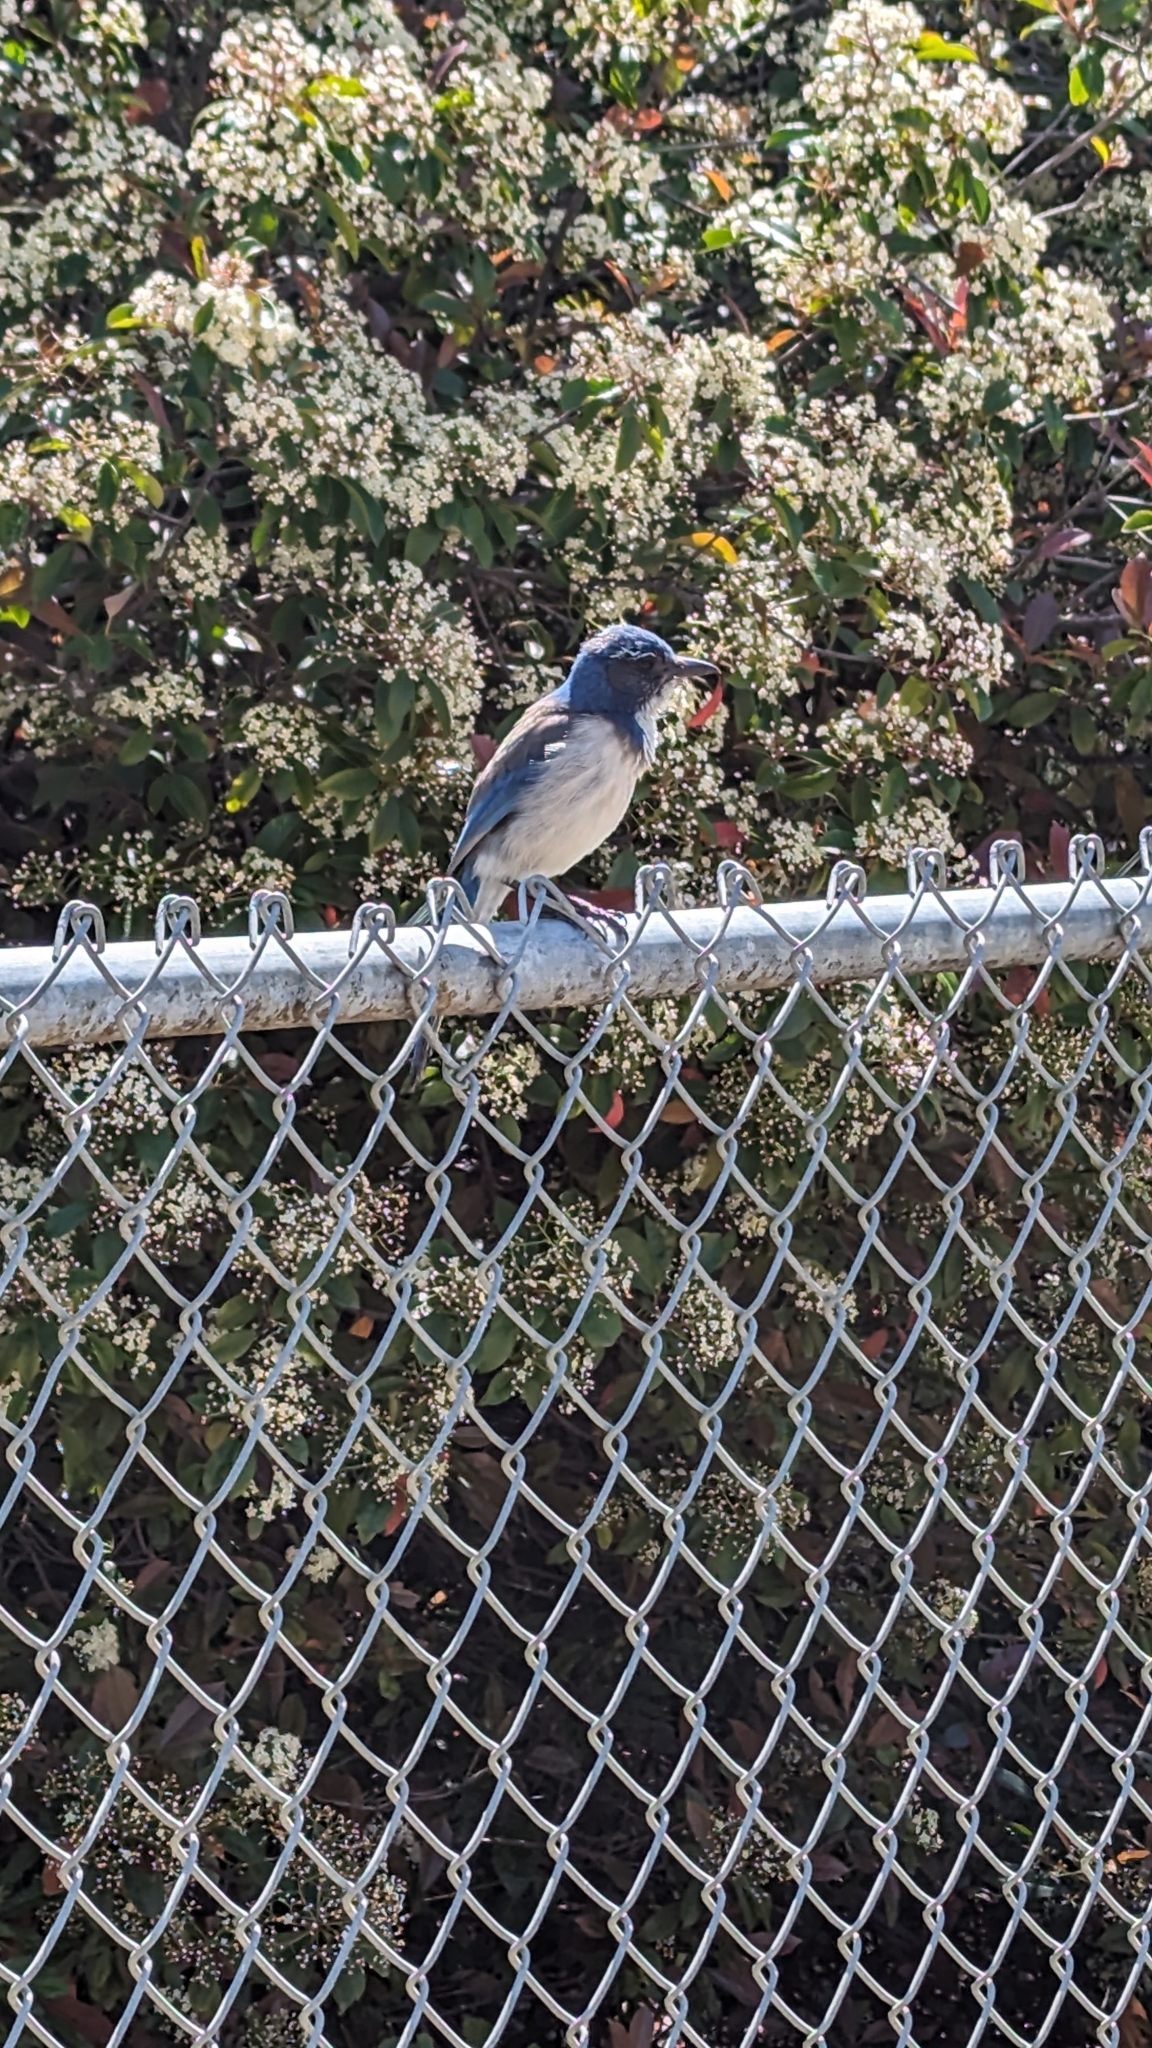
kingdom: Animalia
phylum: Chordata
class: Aves
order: Passeriformes
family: Corvidae
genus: Aphelocoma
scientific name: Aphelocoma californica
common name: California scrub-jay
